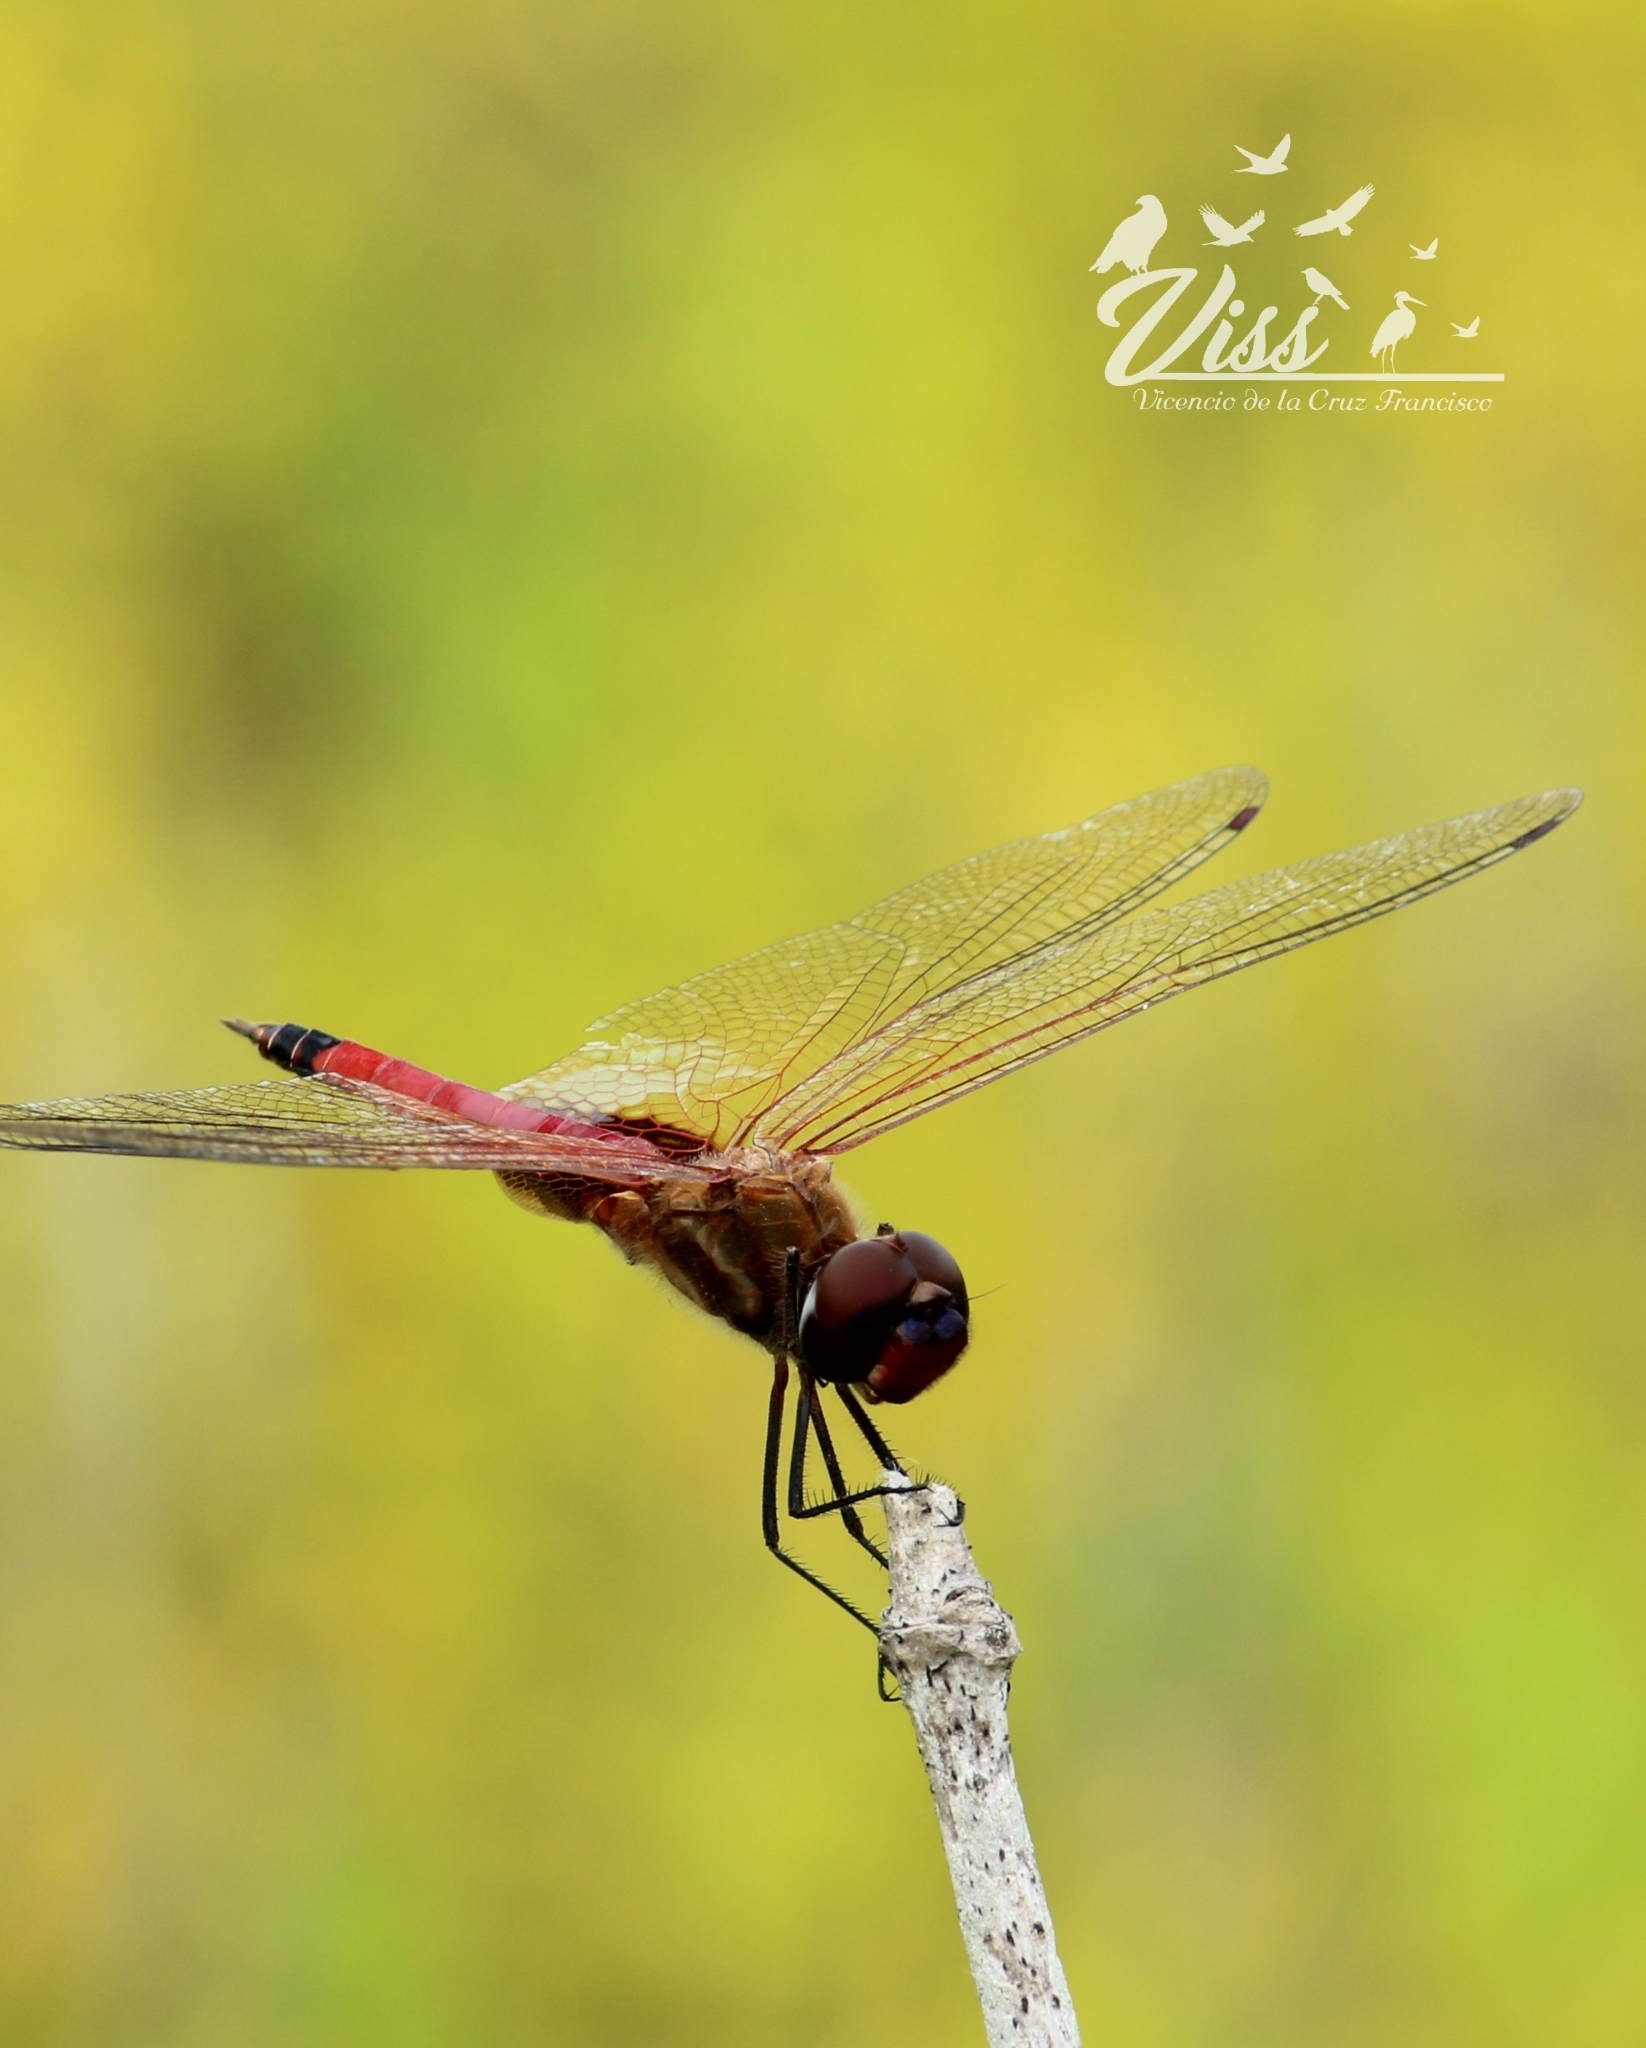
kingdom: Animalia
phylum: Arthropoda
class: Insecta
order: Odonata
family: Libellulidae
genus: Tramea
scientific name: Tramea darwini
